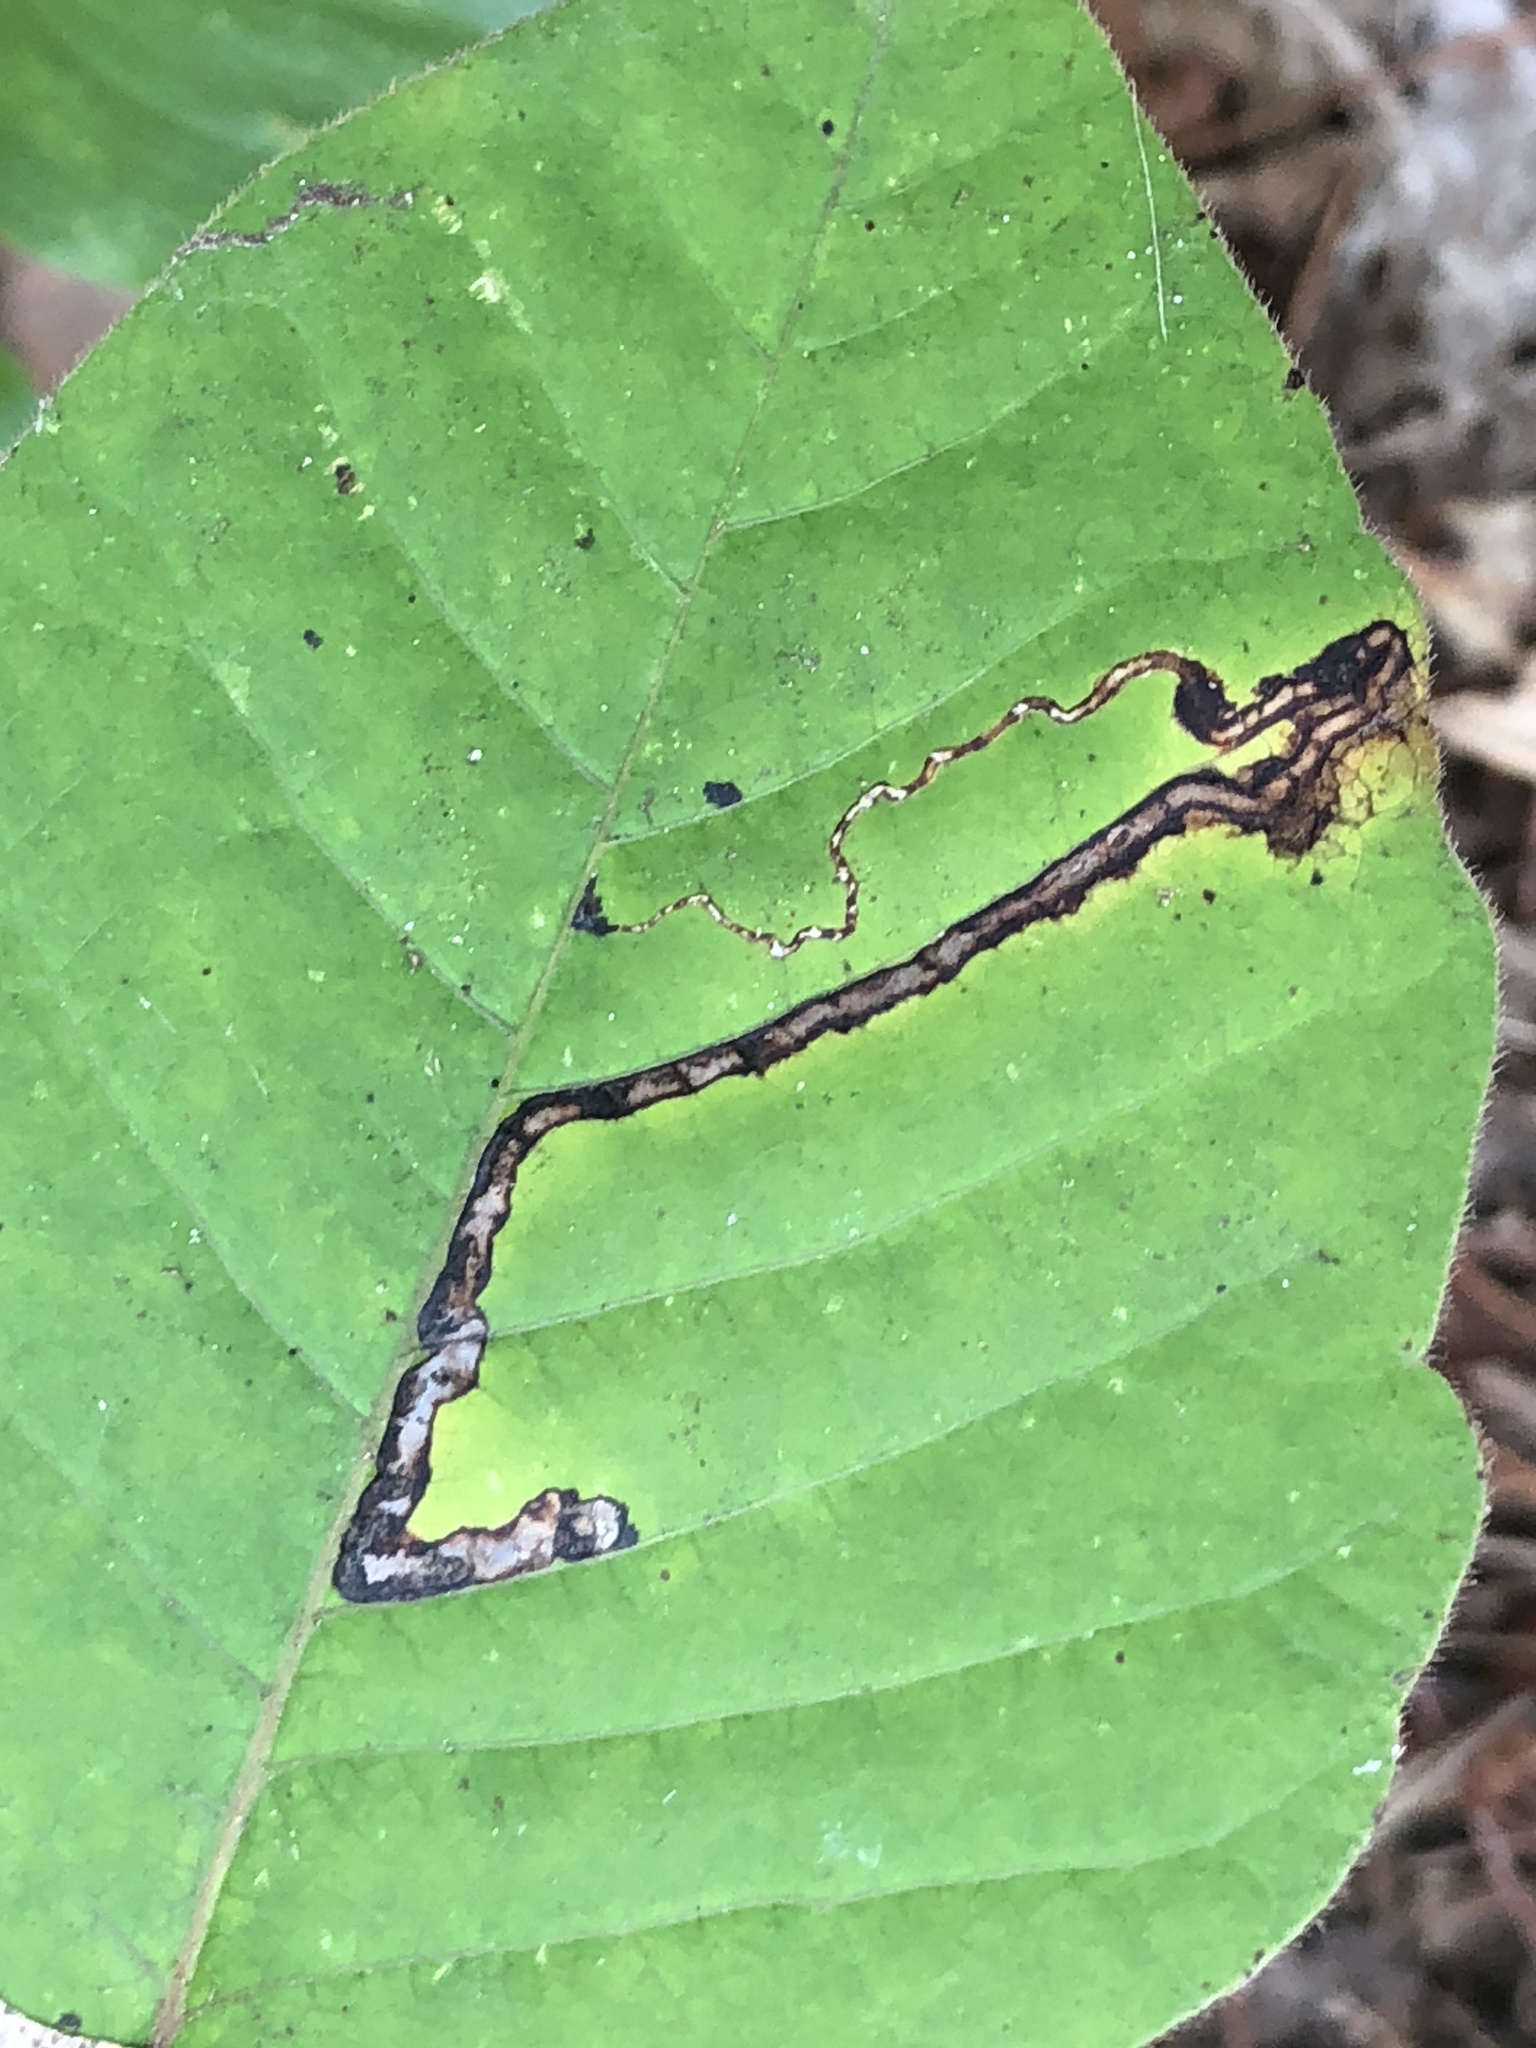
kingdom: Animalia
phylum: Arthropoda
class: Insecta
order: Lepidoptera
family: Nepticulidae
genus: Stigmella
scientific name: Stigmella rhoifoliella
